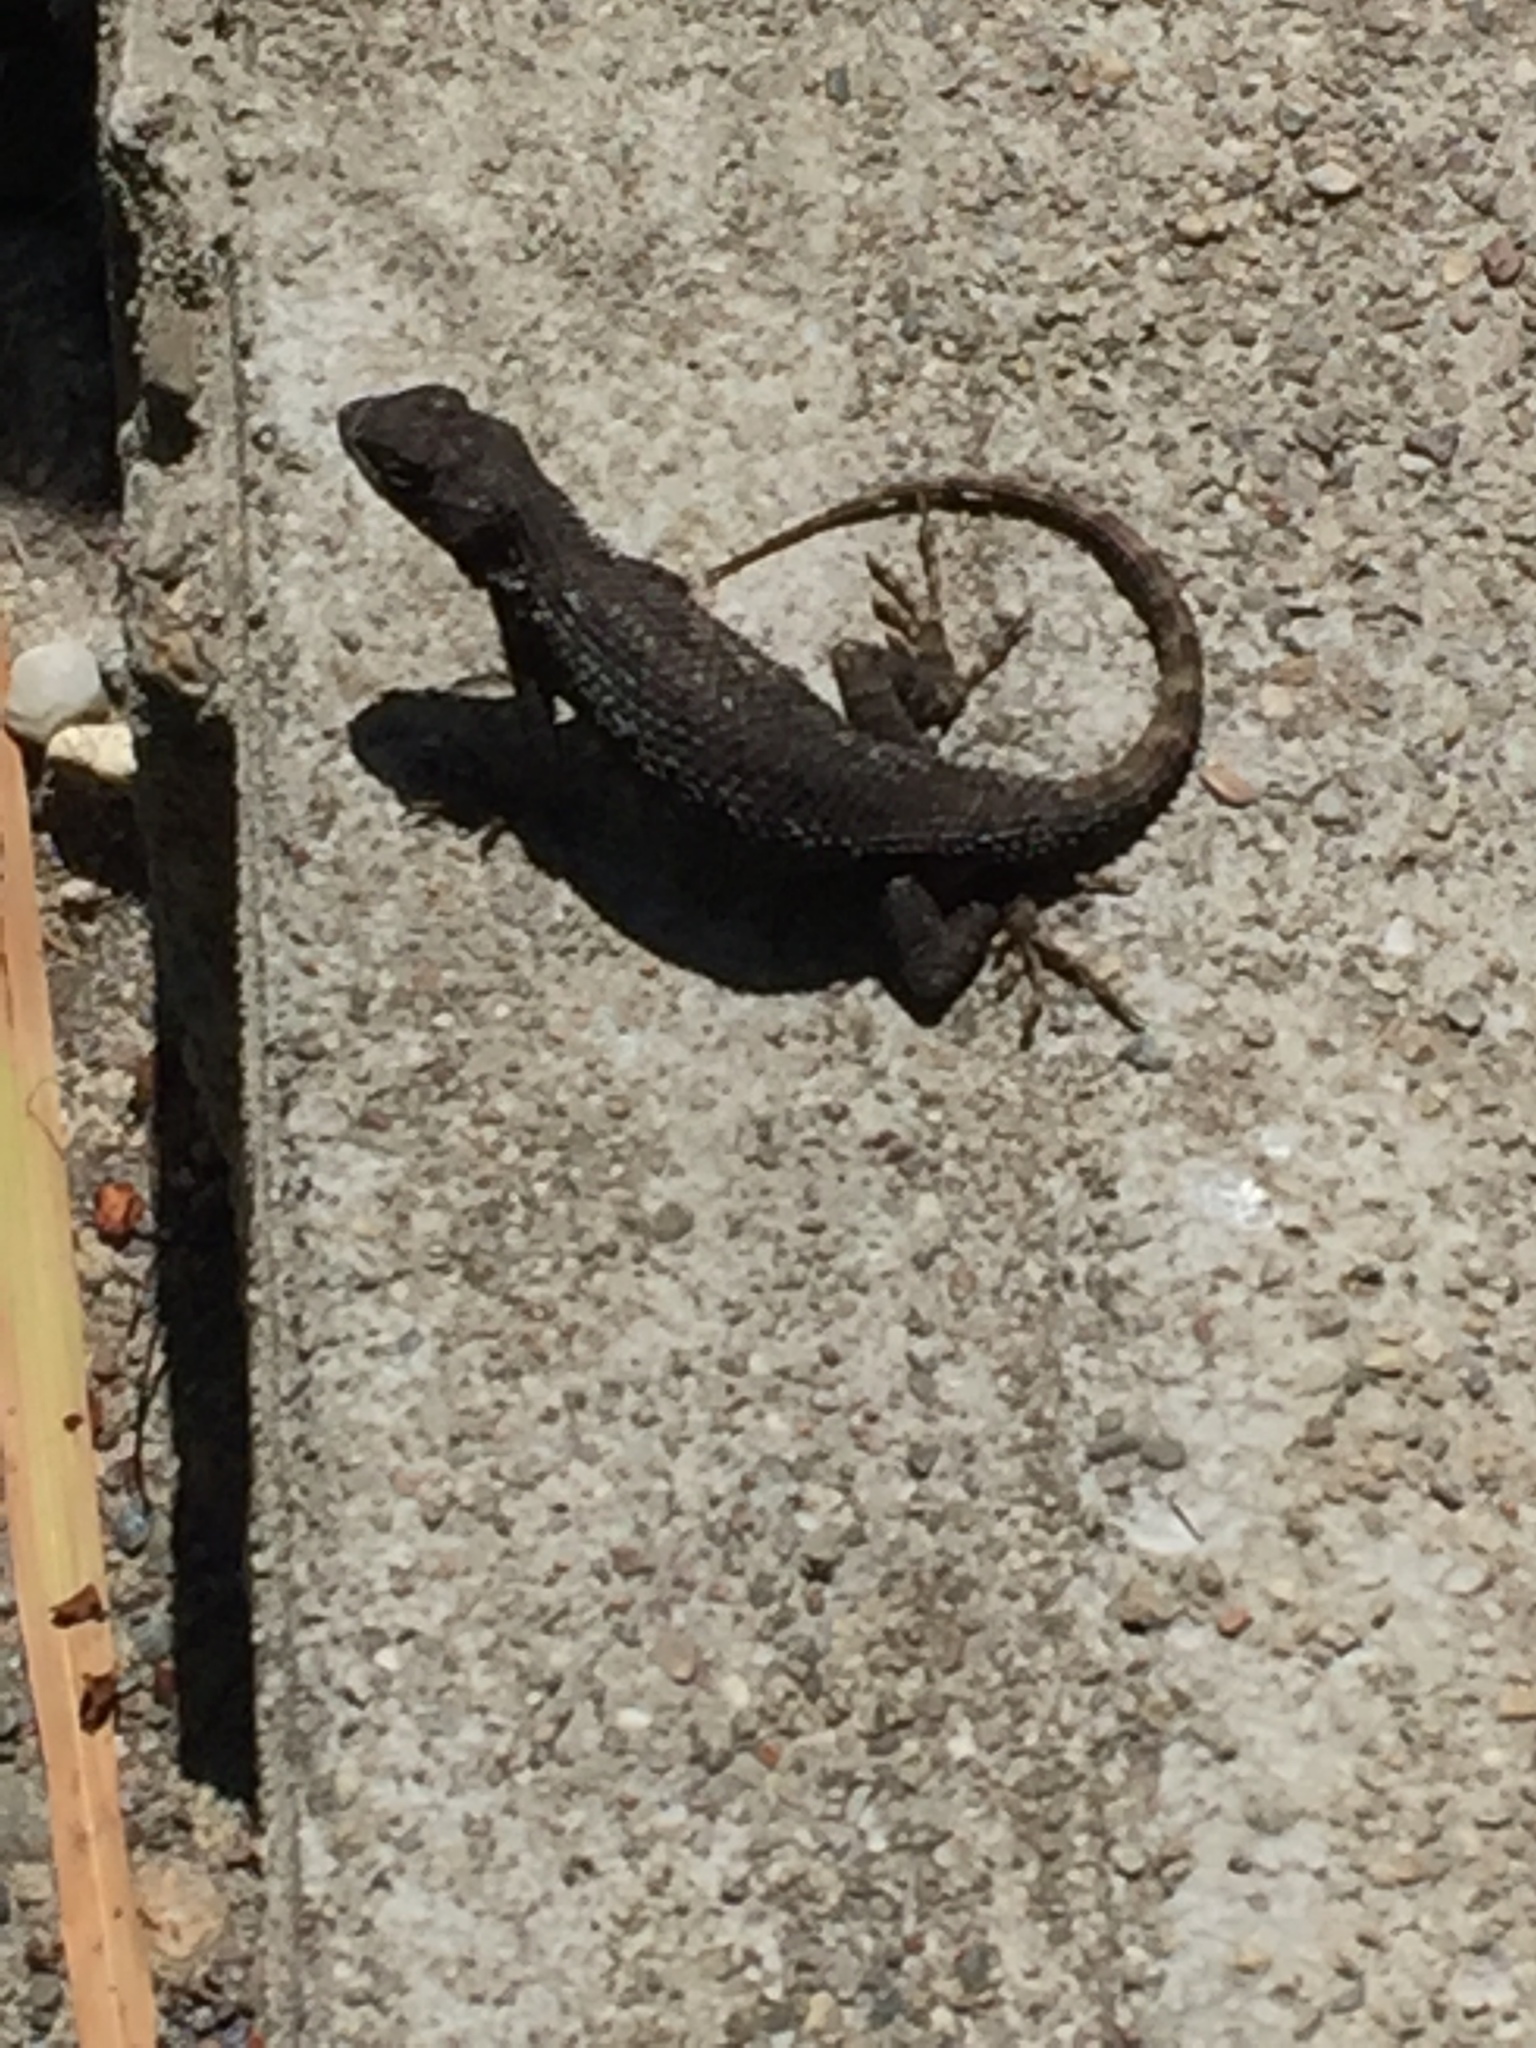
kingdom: Animalia
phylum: Chordata
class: Squamata
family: Phrynosomatidae
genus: Sceloporus
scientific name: Sceloporus occidentalis
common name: Western fence lizard
